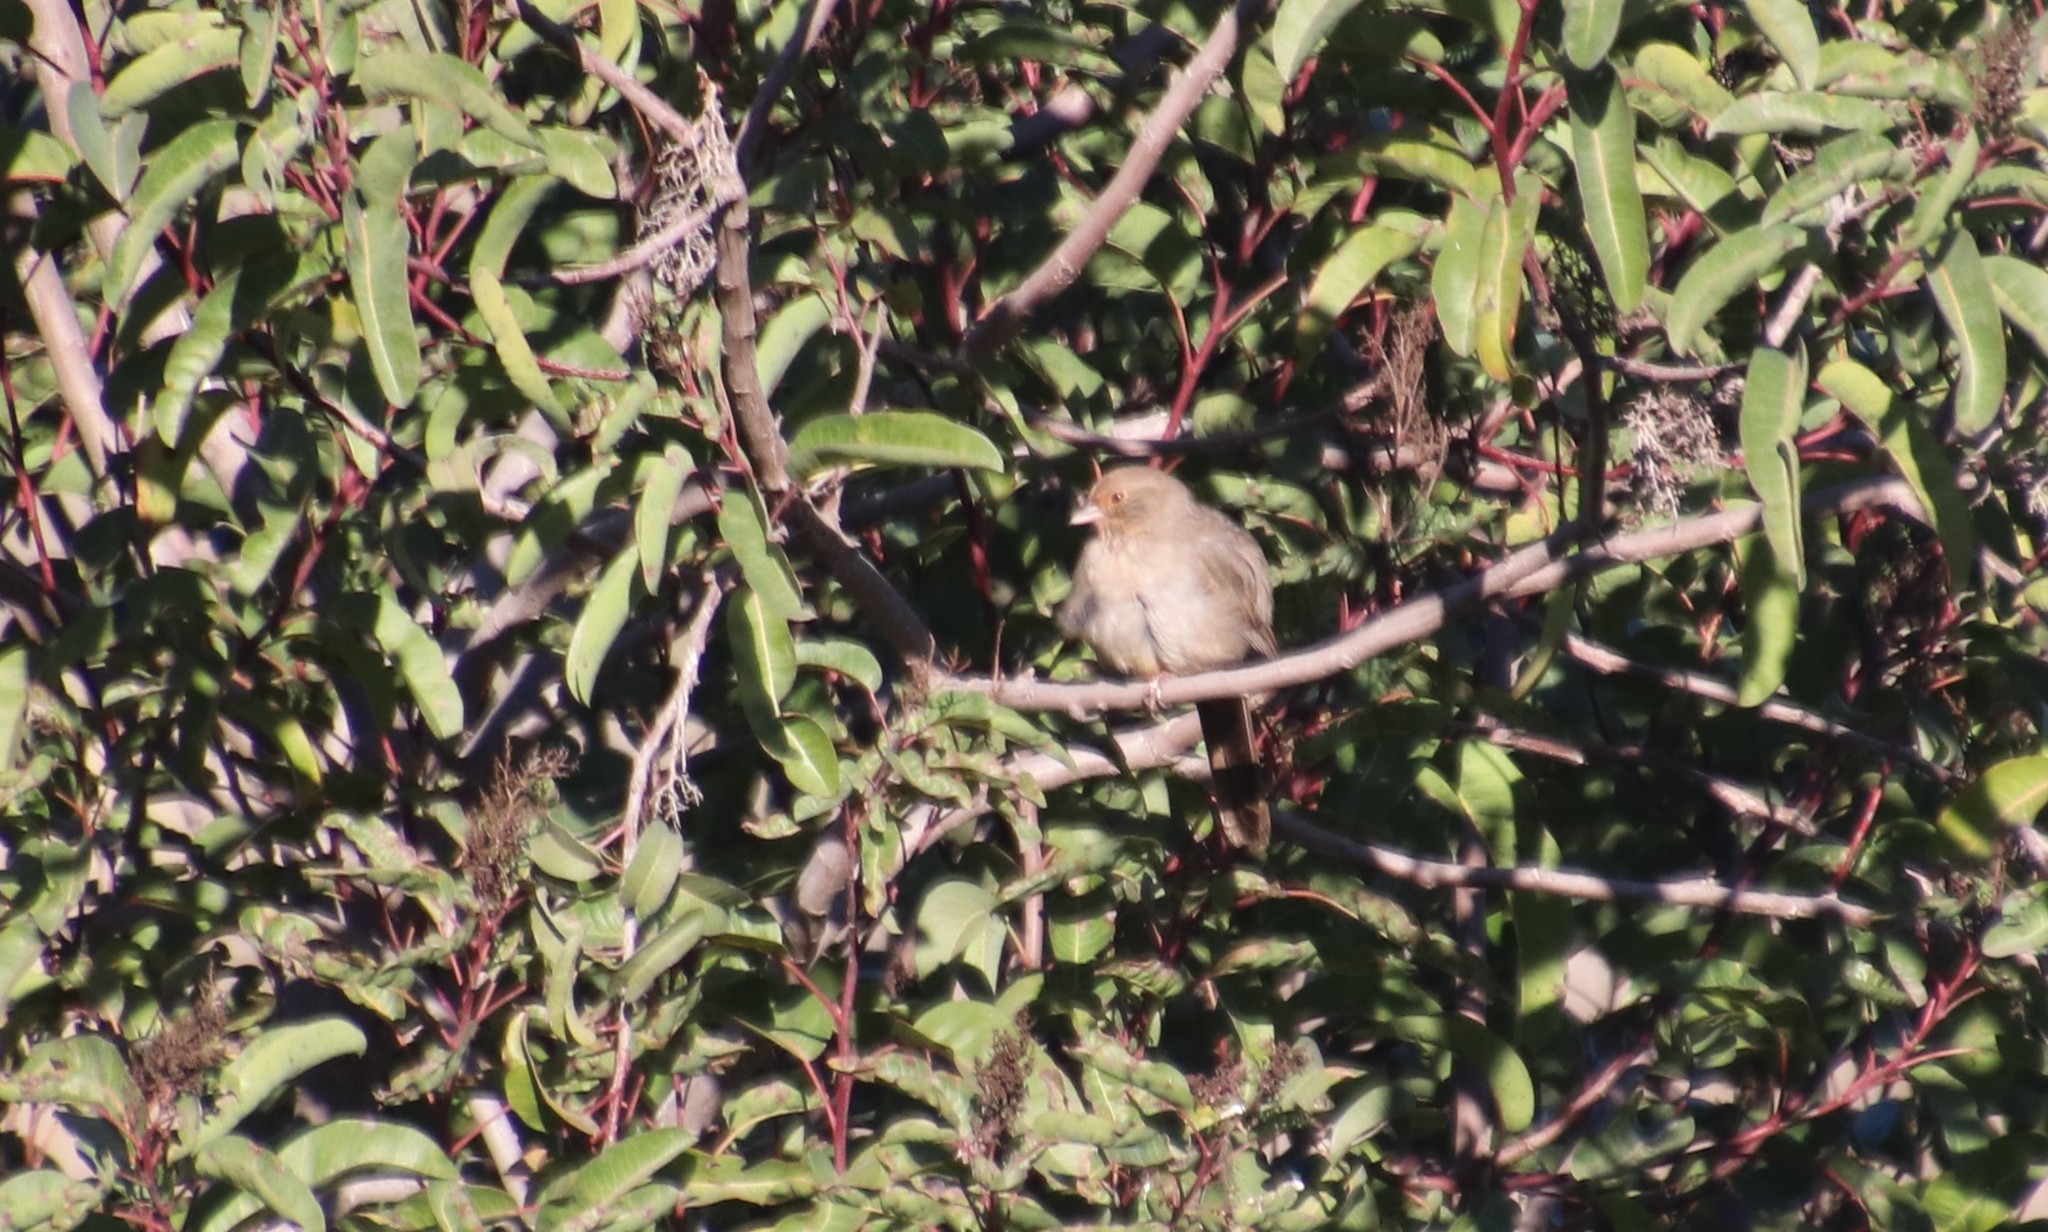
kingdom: Animalia
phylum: Chordata
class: Aves
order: Passeriformes
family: Passerellidae
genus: Melozone
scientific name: Melozone crissalis
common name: California towhee
